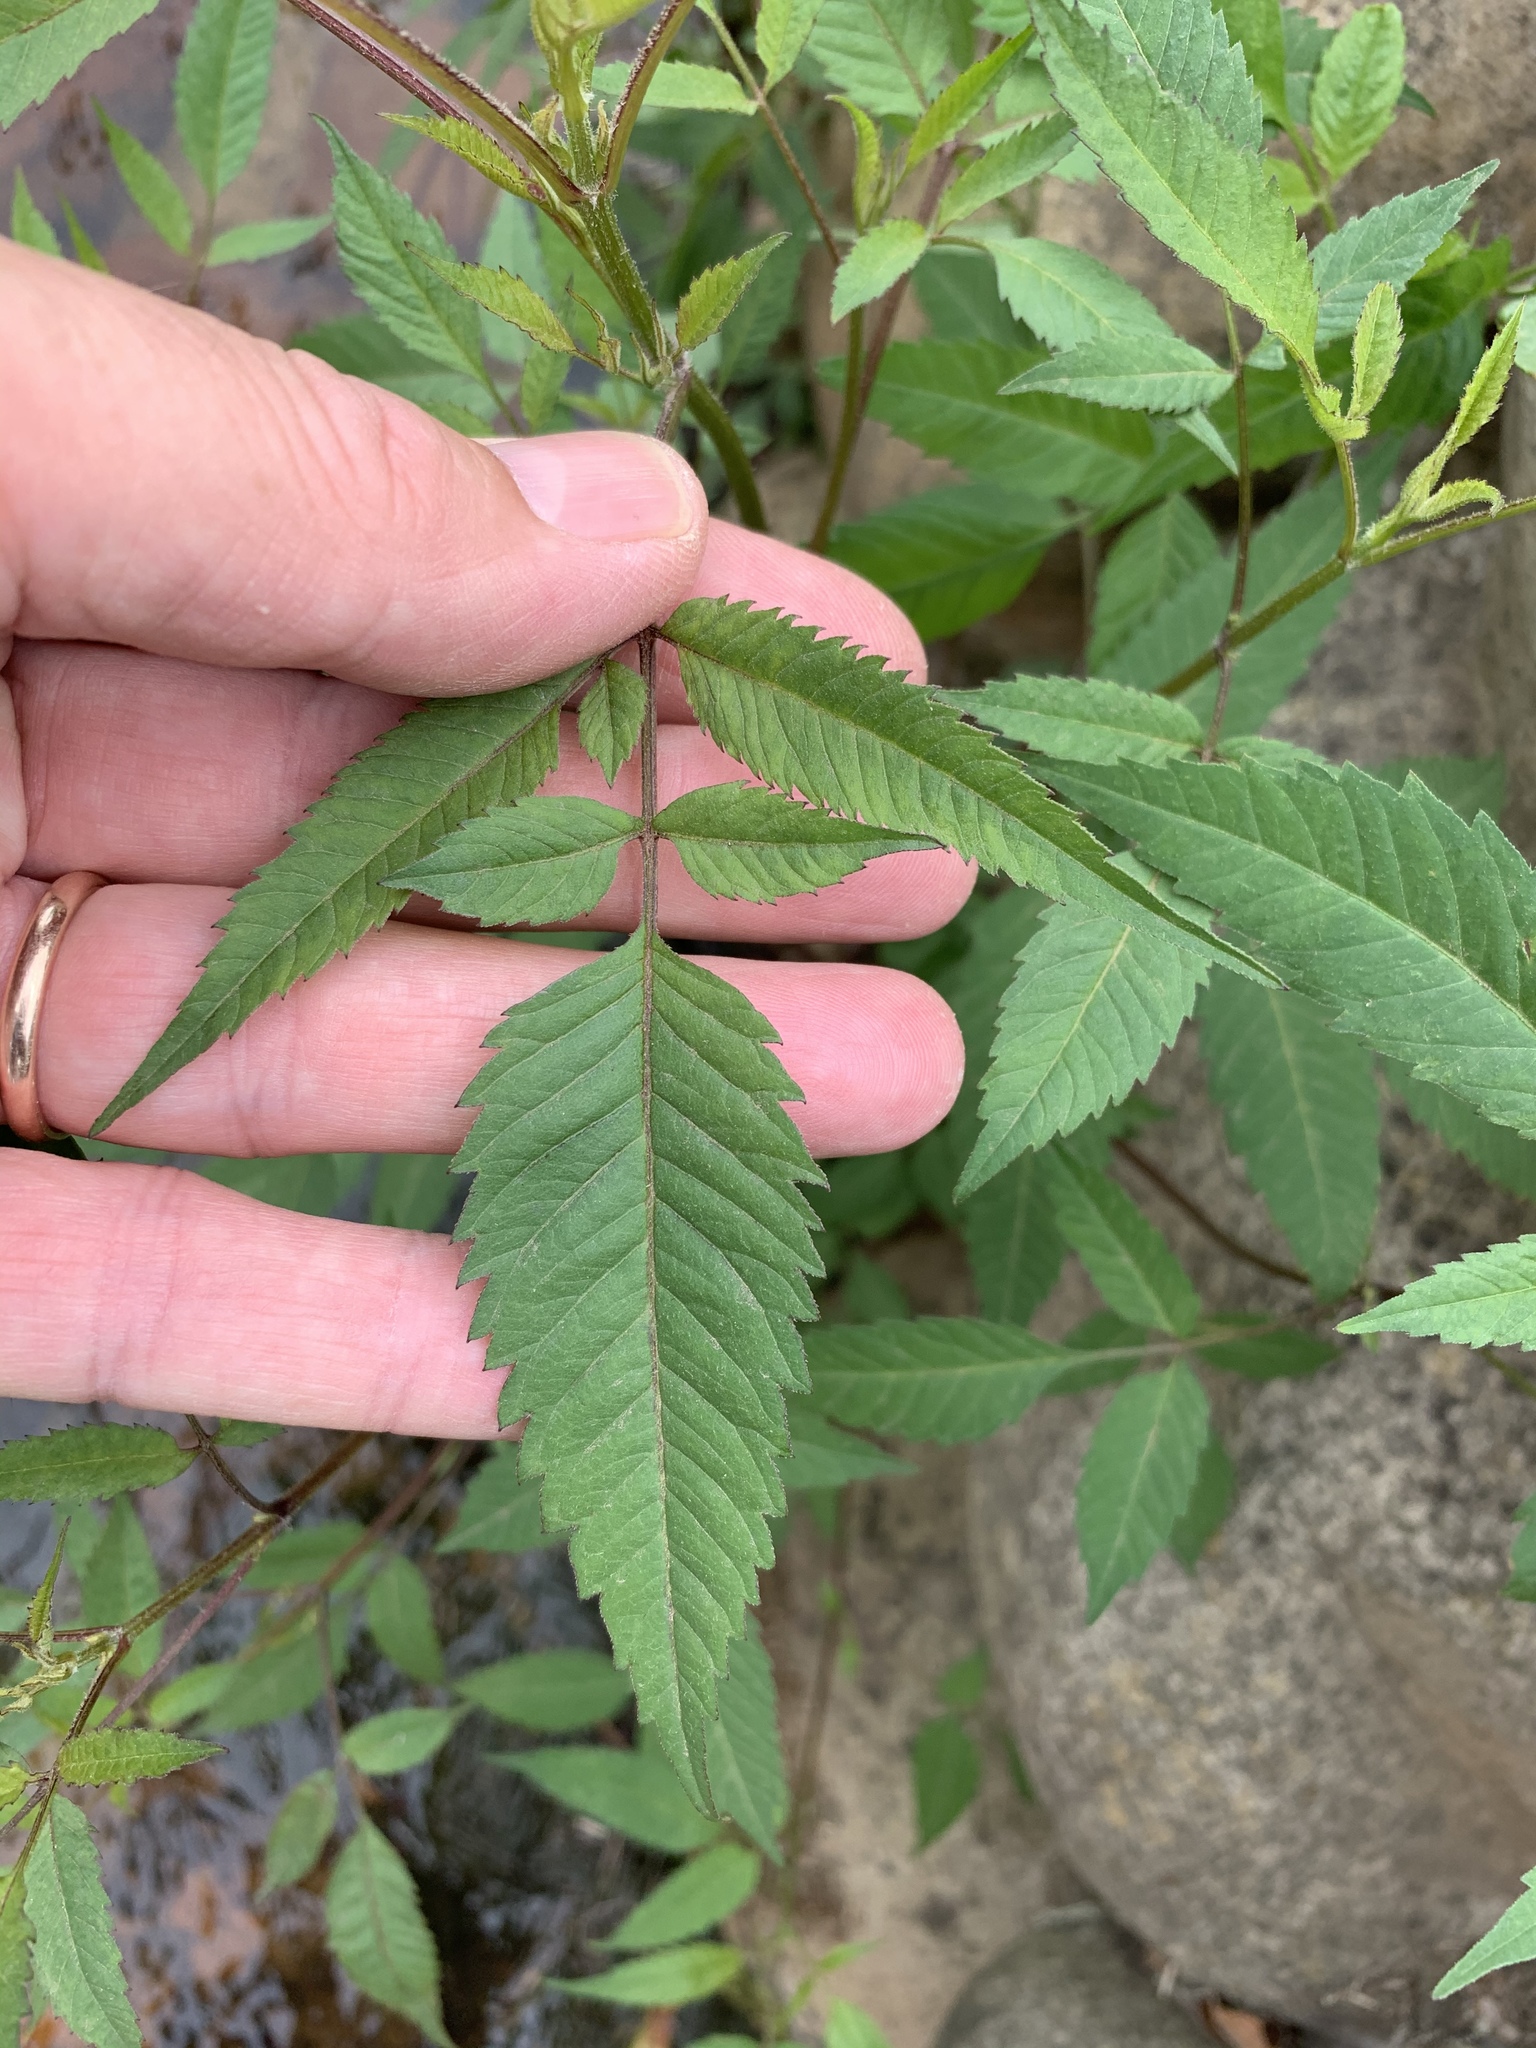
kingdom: Plantae
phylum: Tracheophyta
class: Magnoliopsida
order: Asterales
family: Asteraceae
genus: Bidens
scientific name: Bidens pilosa
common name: Black-jack
